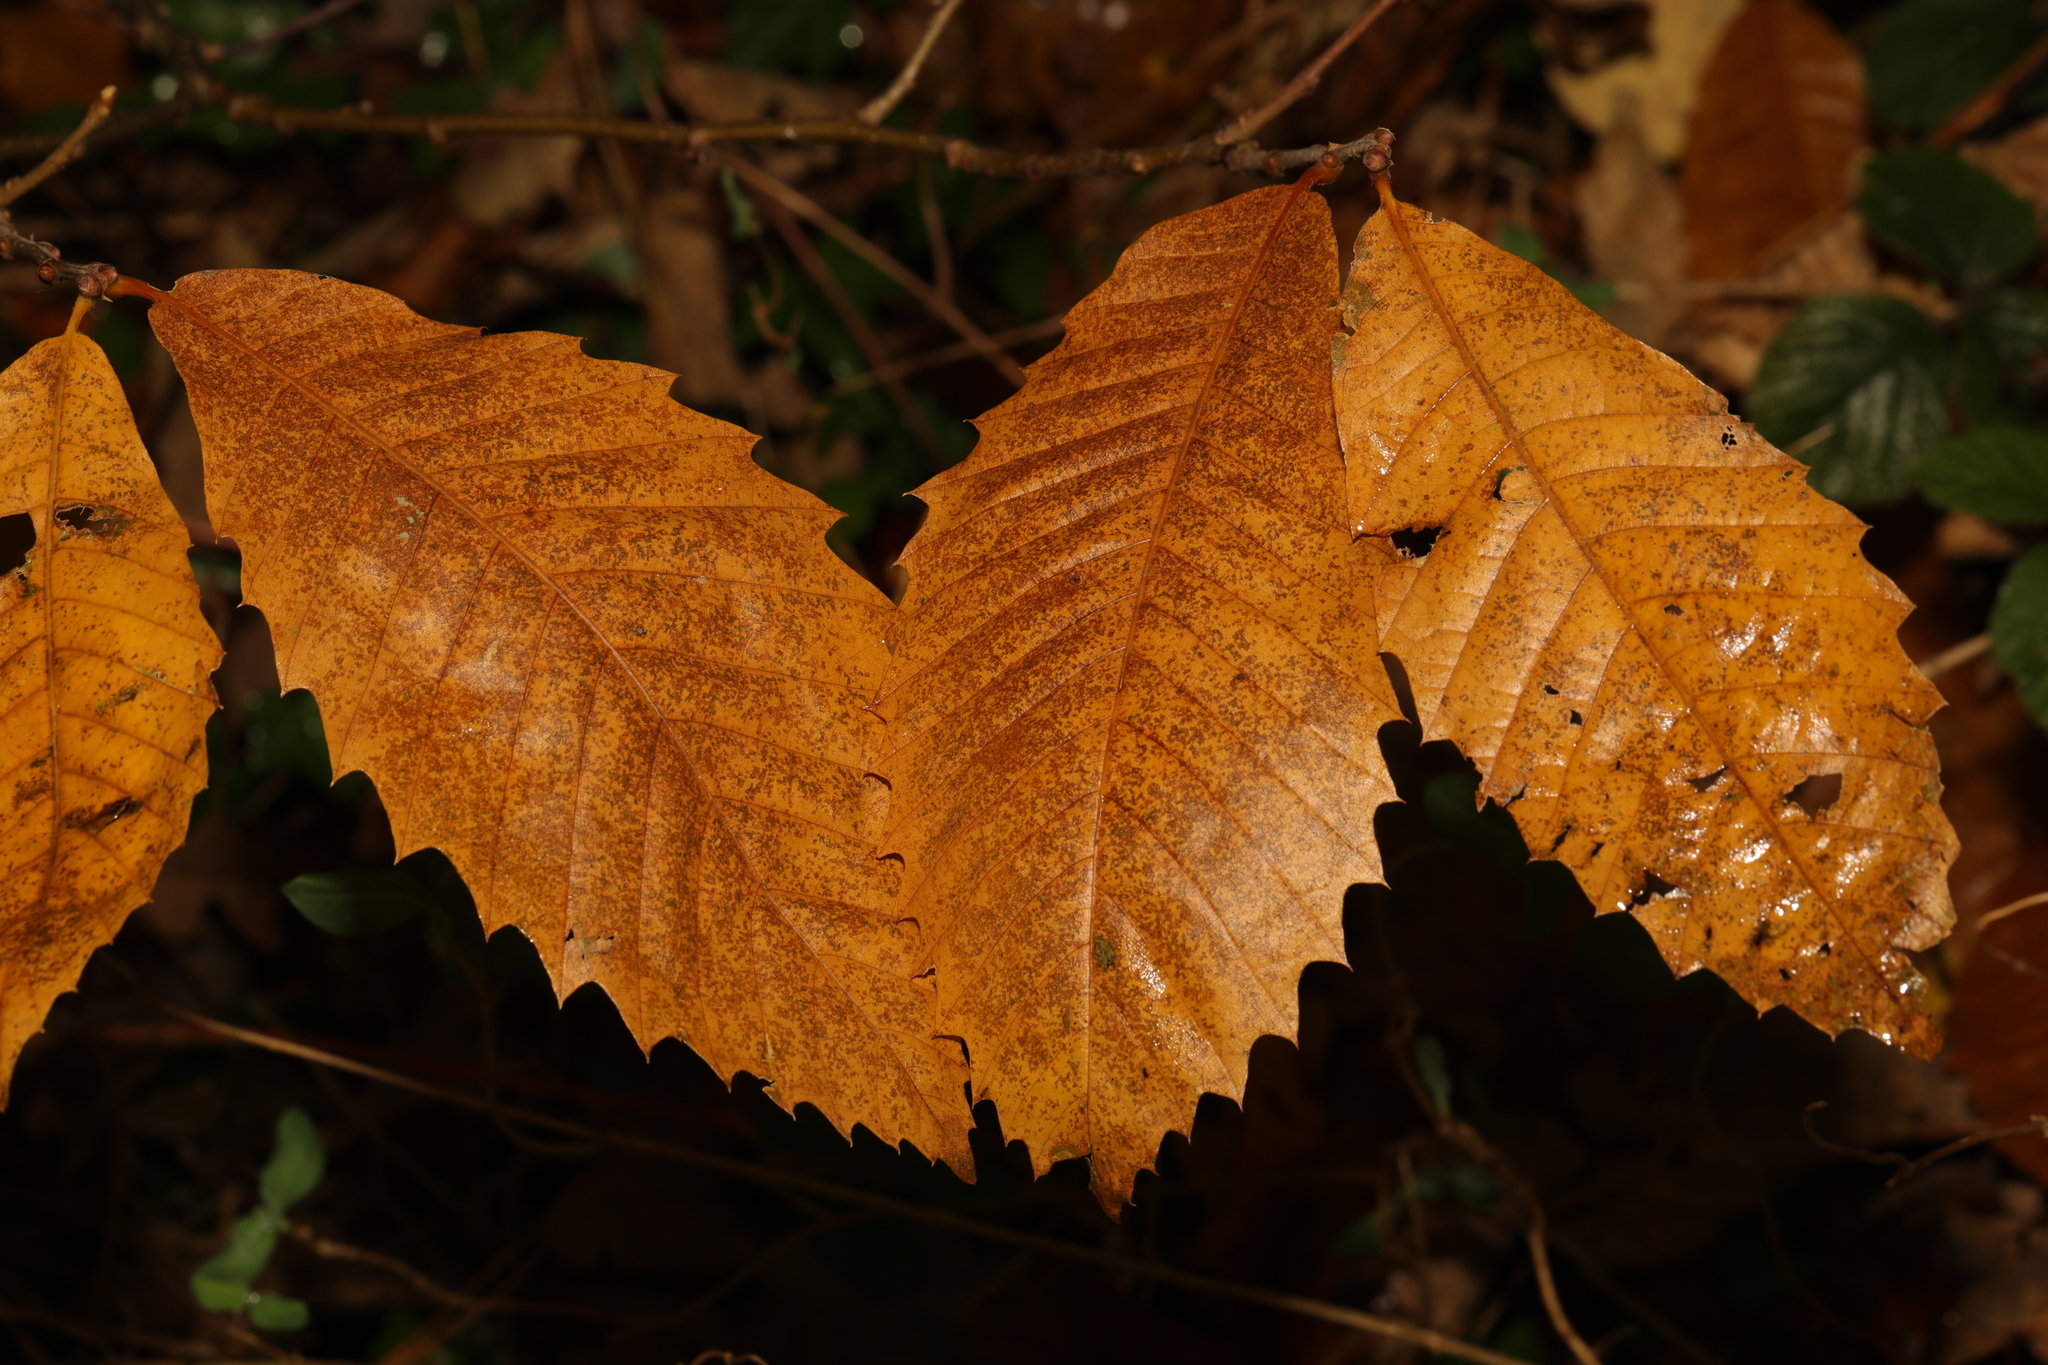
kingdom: Plantae
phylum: Tracheophyta
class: Magnoliopsida
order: Fagales
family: Fagaceae
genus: Castanea
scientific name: Castanea sativa
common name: Sweet chestnut
